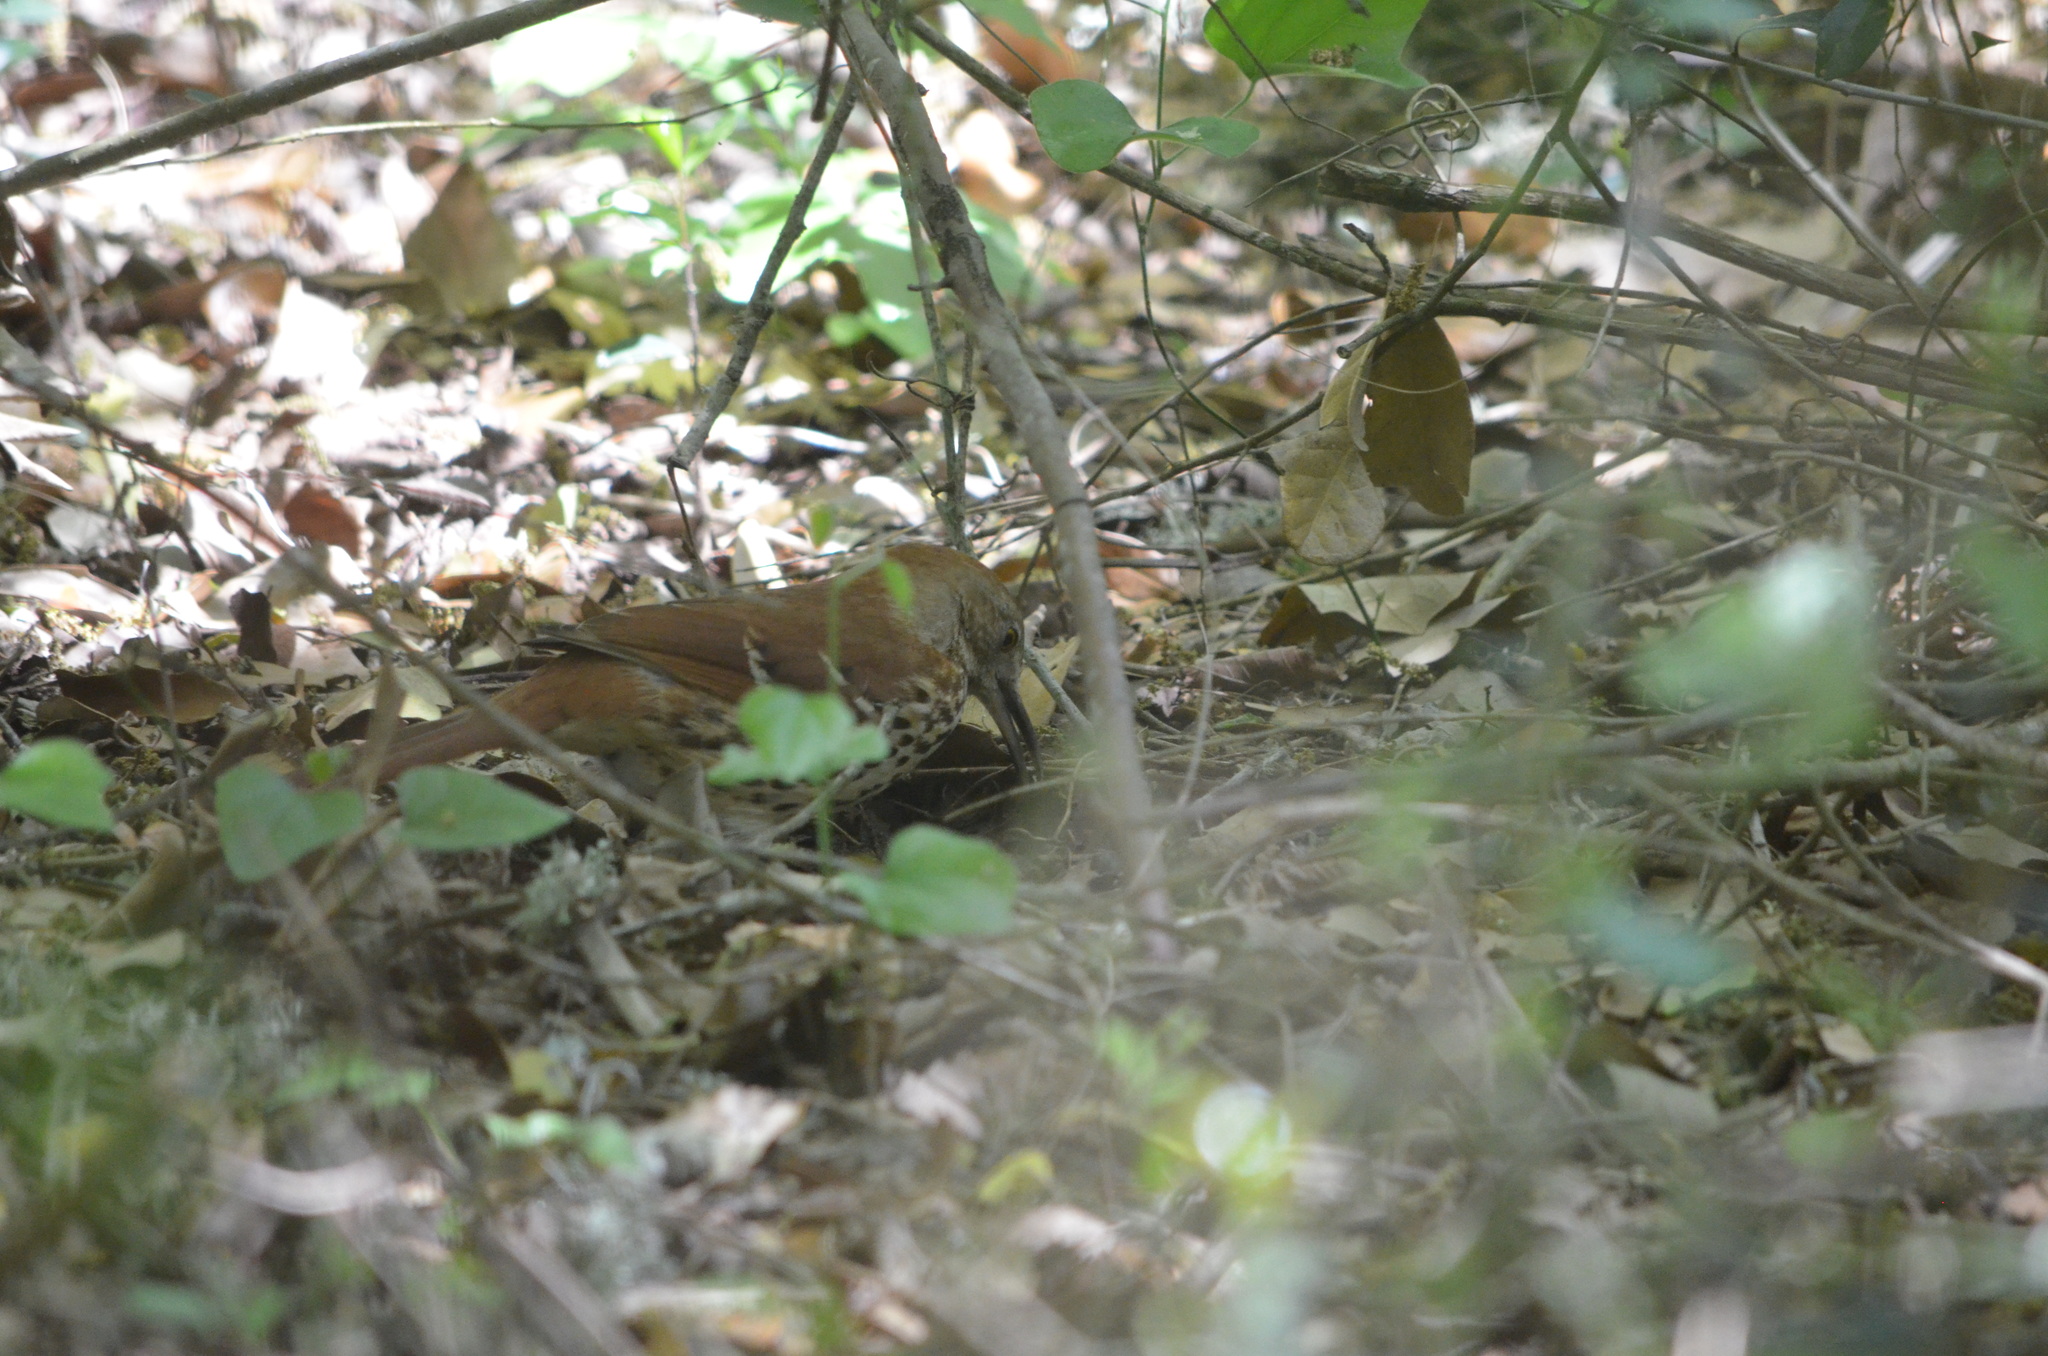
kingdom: Animalia
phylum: Chordata
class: Aves
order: Passeriformes
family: Mimidae
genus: Toxostoma
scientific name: Toxostoma rufum
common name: Brown thrasher
